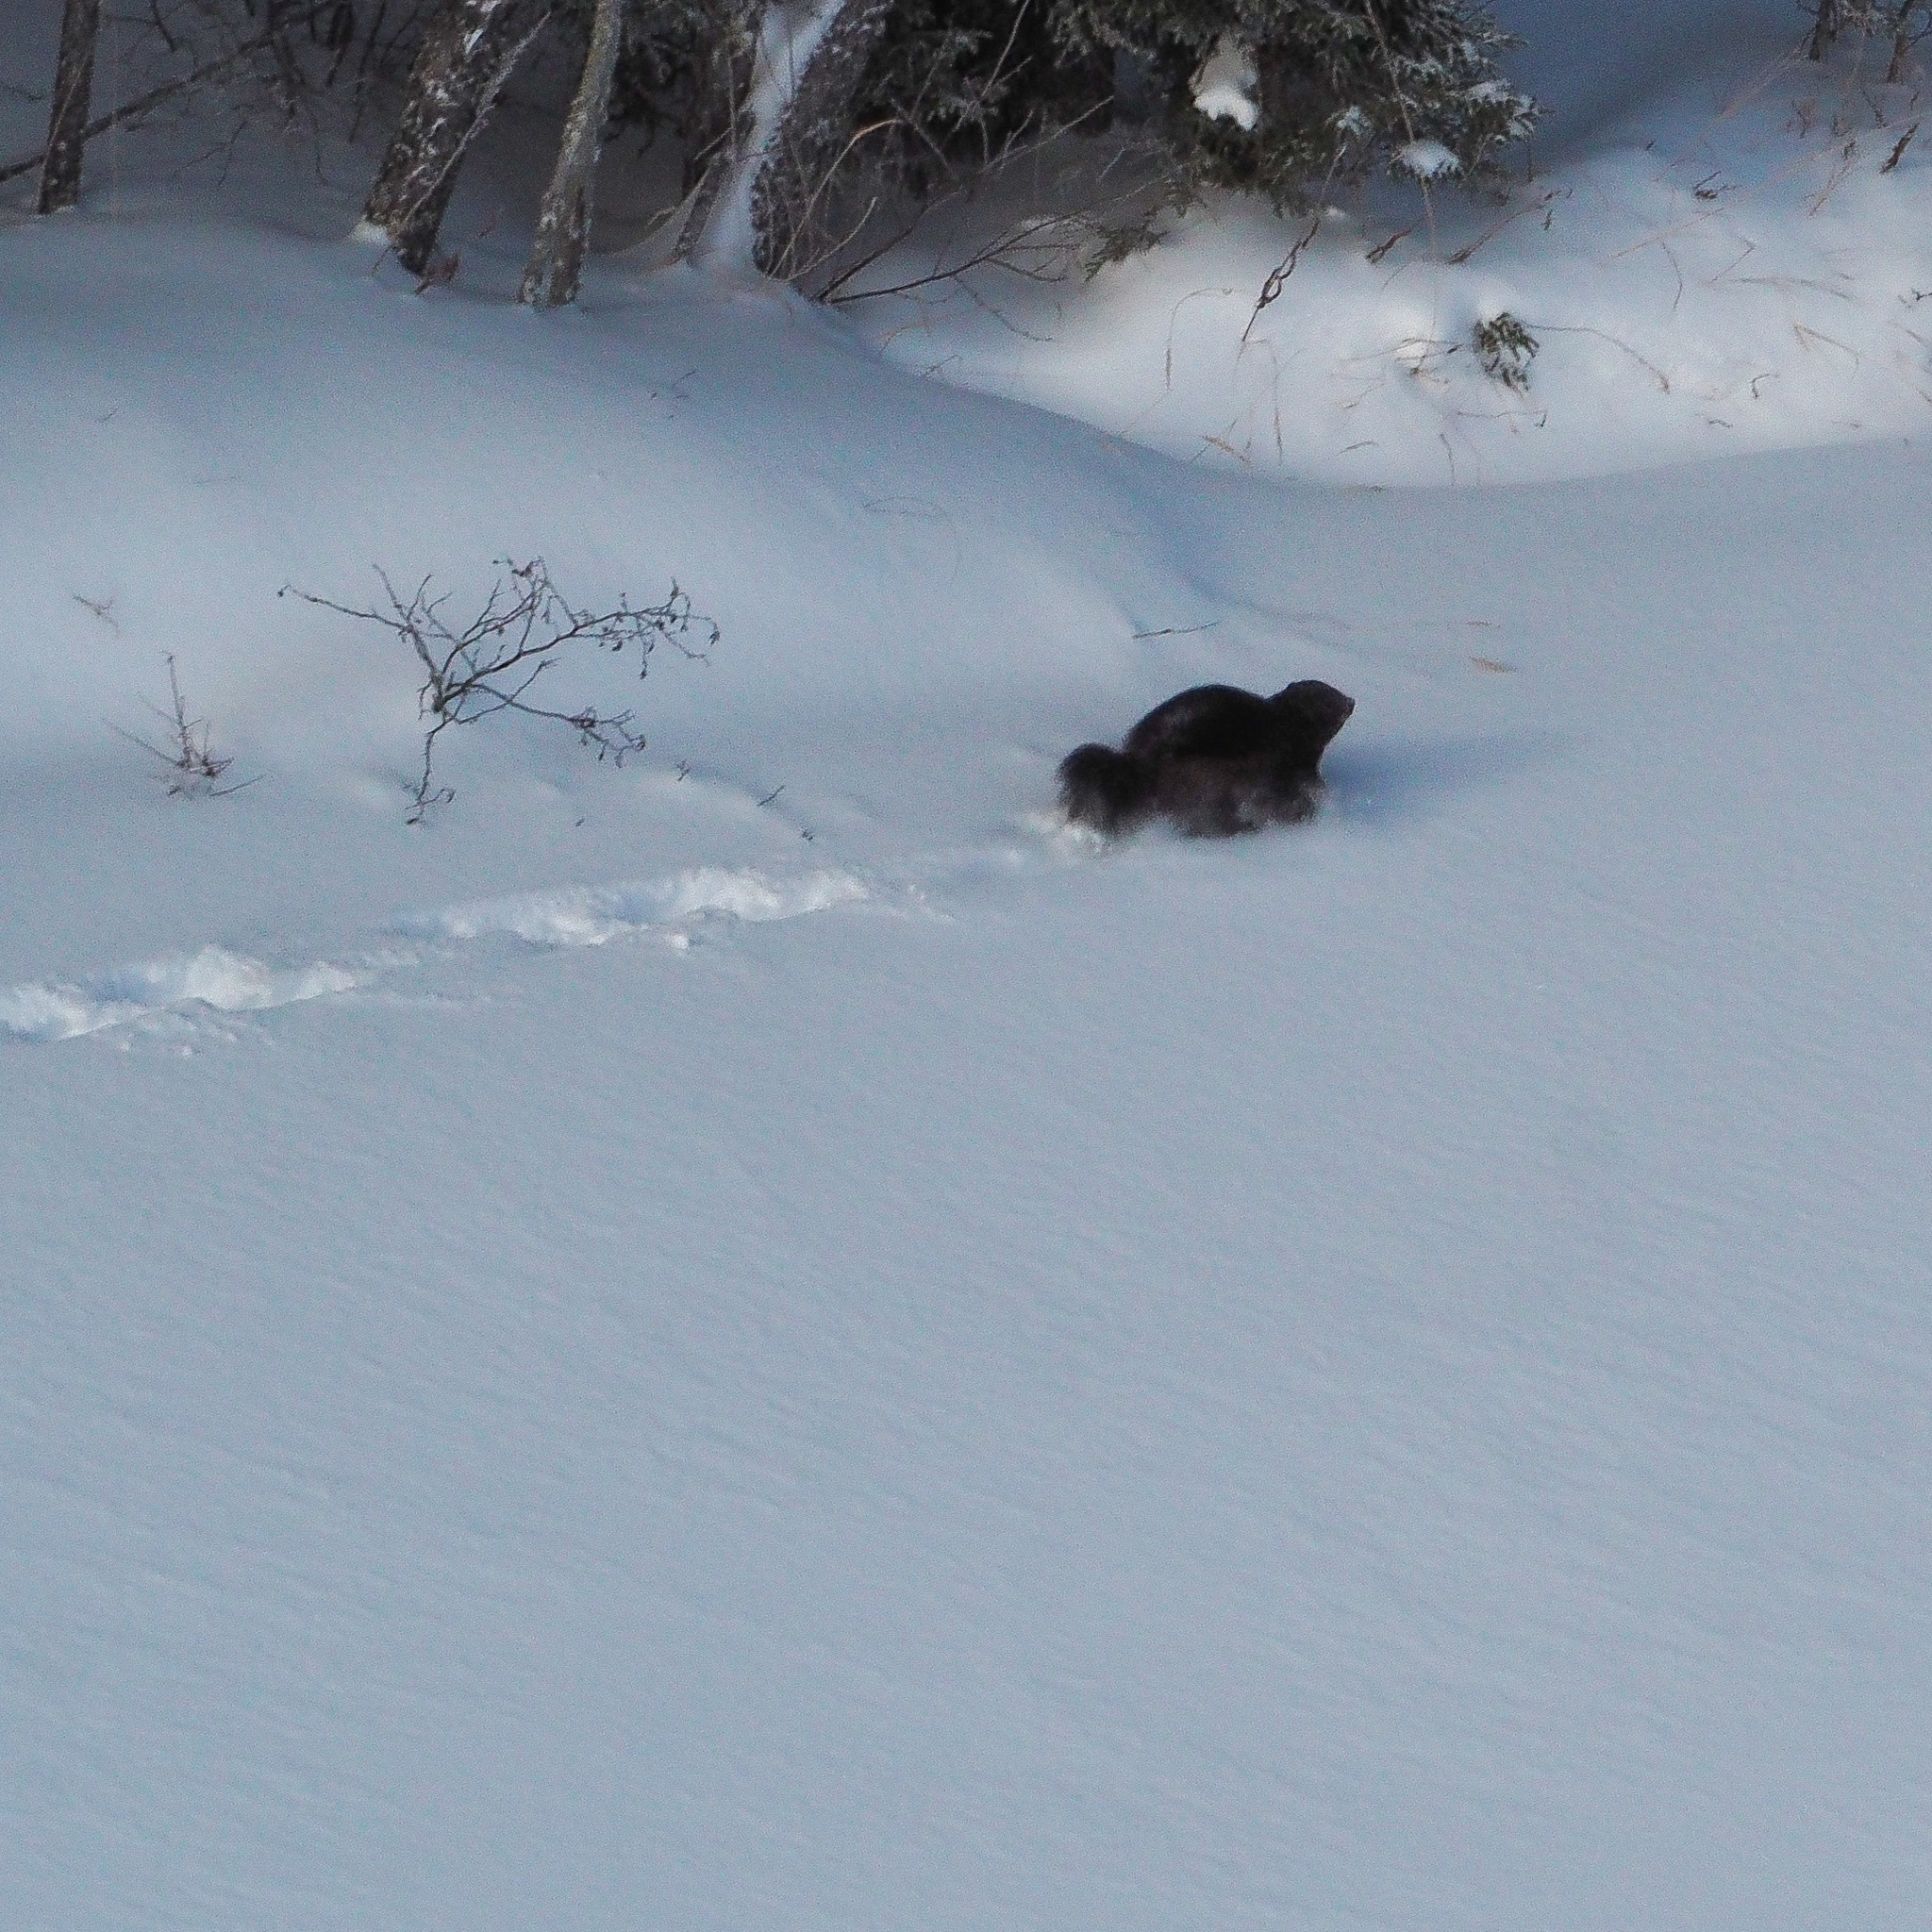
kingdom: Animalia
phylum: Chordata
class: Mammalia
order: Carnivora
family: Mustelidae
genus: Gulo
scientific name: Gulo gulo
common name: Wolverine
